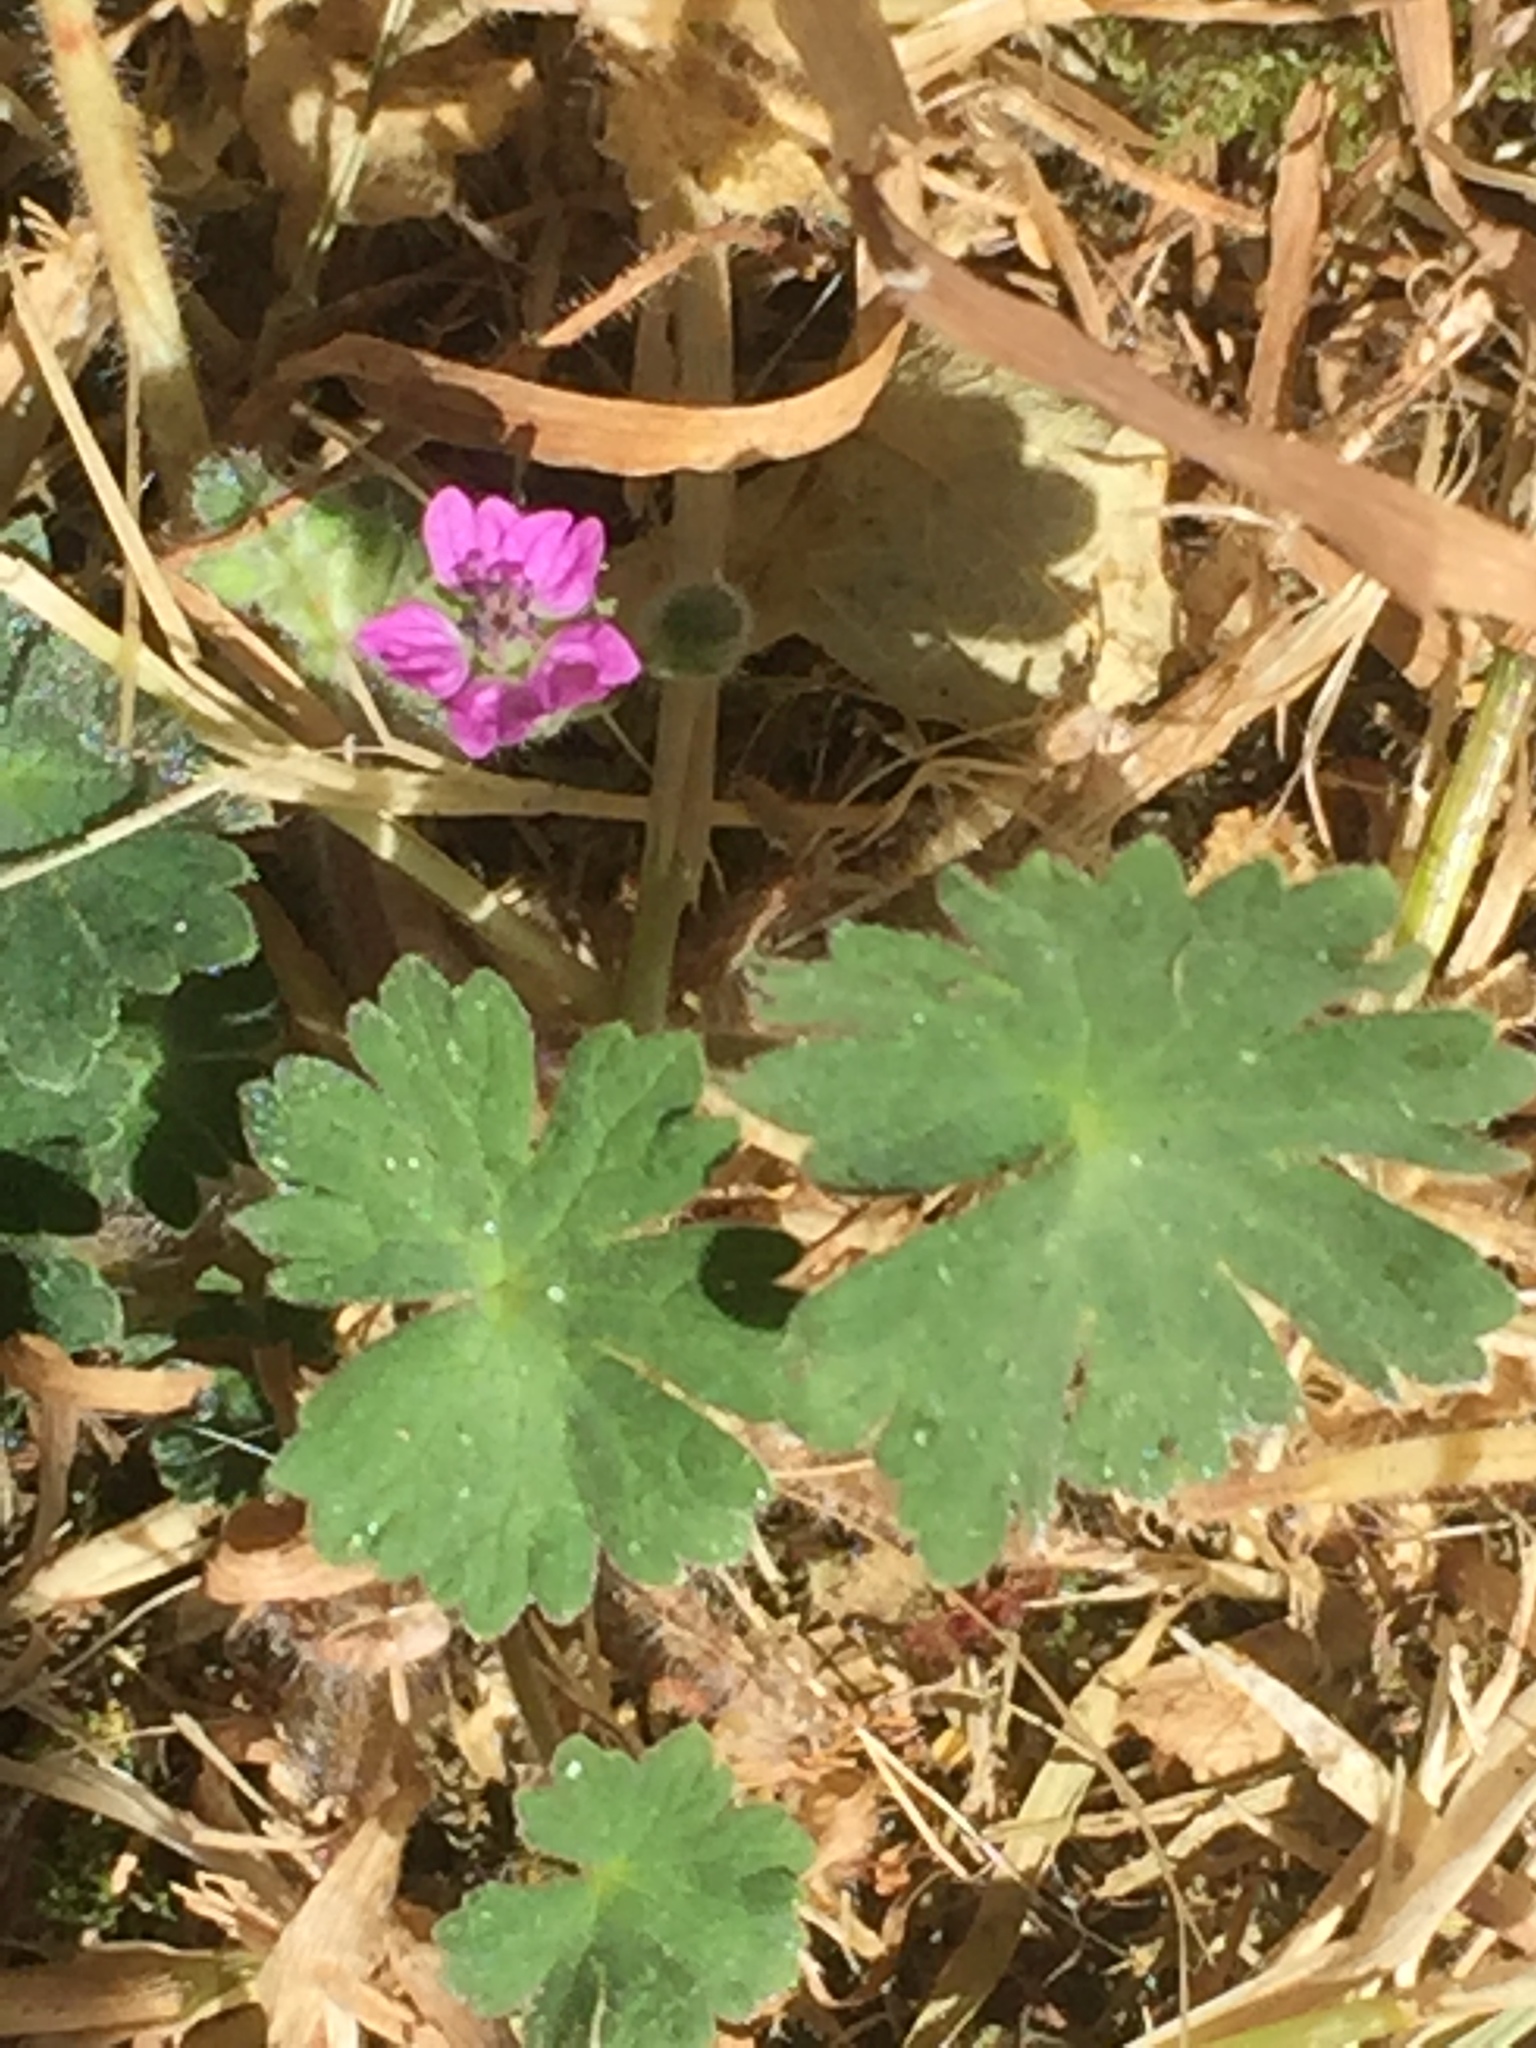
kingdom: Plantae
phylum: Tracheophyta
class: Magnoliopsida
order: Geraniales
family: Geraniaceae
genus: Geranium
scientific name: Geranium molle
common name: Dove's-foot crane's-bill
